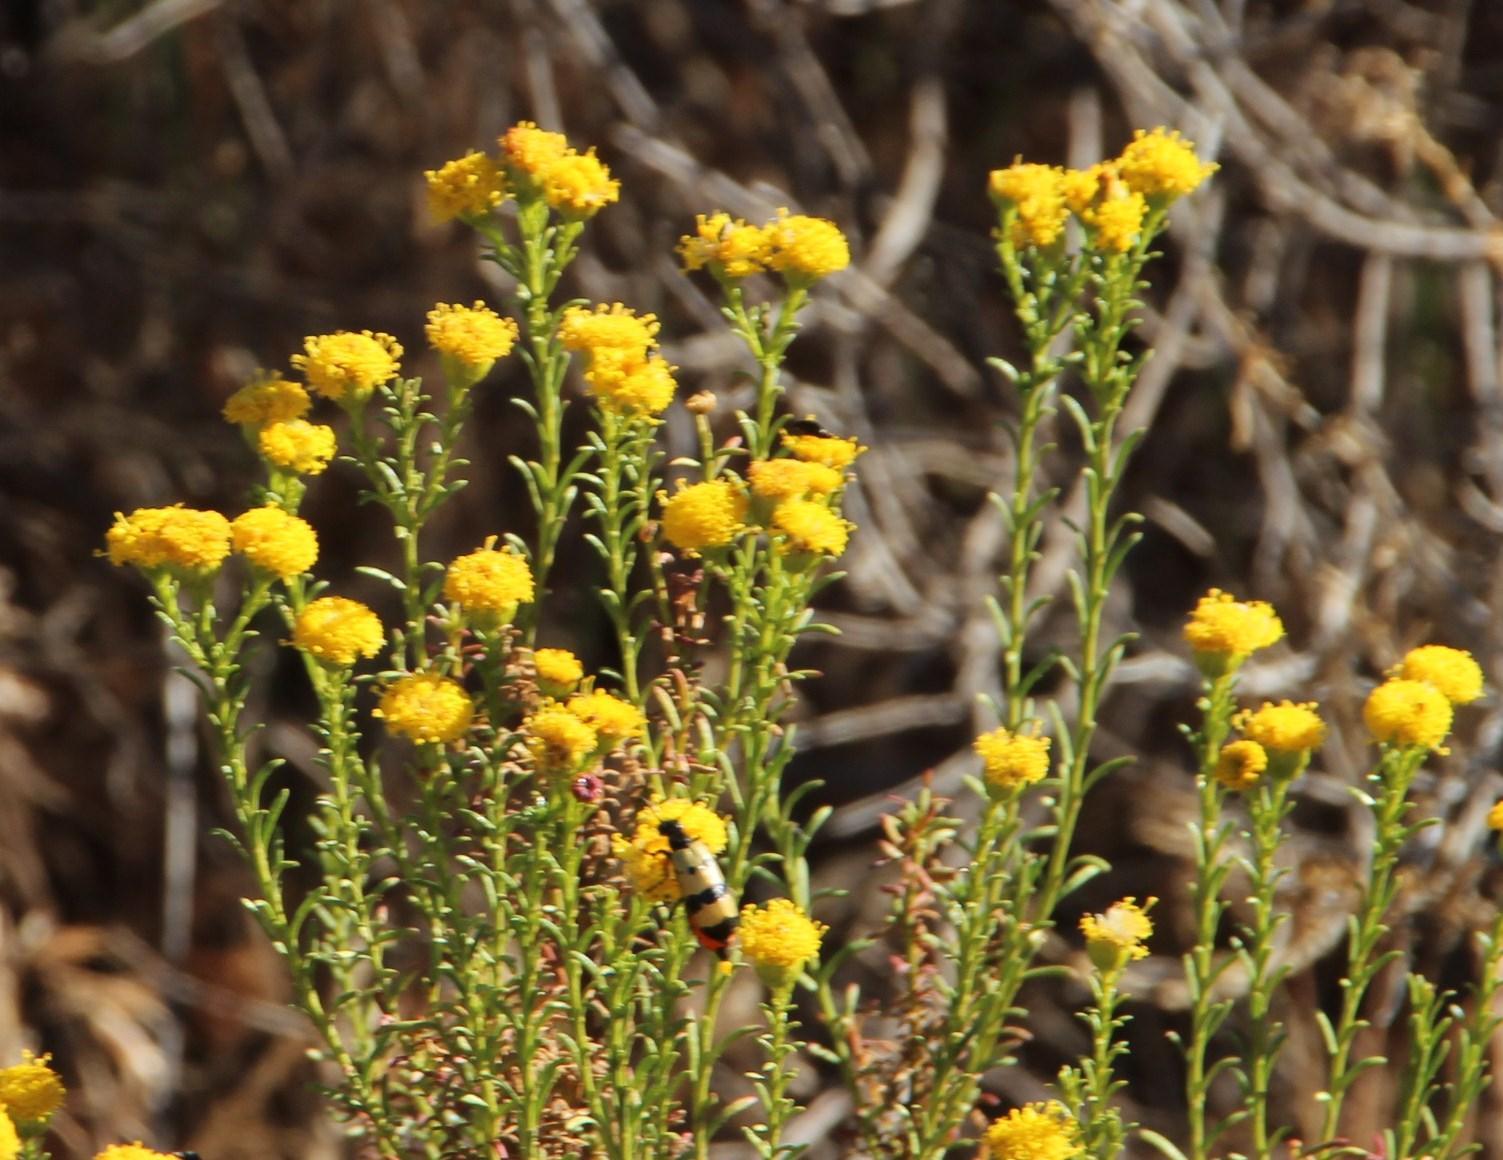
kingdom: Plantae
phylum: Tracheophyta
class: Magnoliopsida
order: Asterales
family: Asteraceae
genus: Chrysocoma
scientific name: Chrysocoma ciliata
